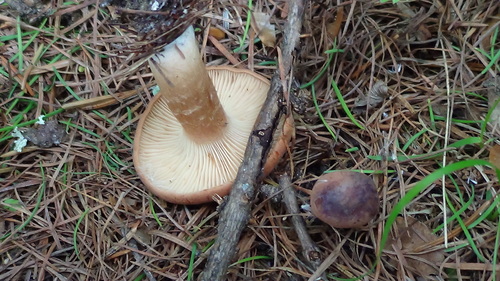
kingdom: Fungi
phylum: Basidiomycota
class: Agaricomycetes
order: Russulales
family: Russulaceae
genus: Lactarius
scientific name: Lactarius trivialis
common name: Tacked milkcap
